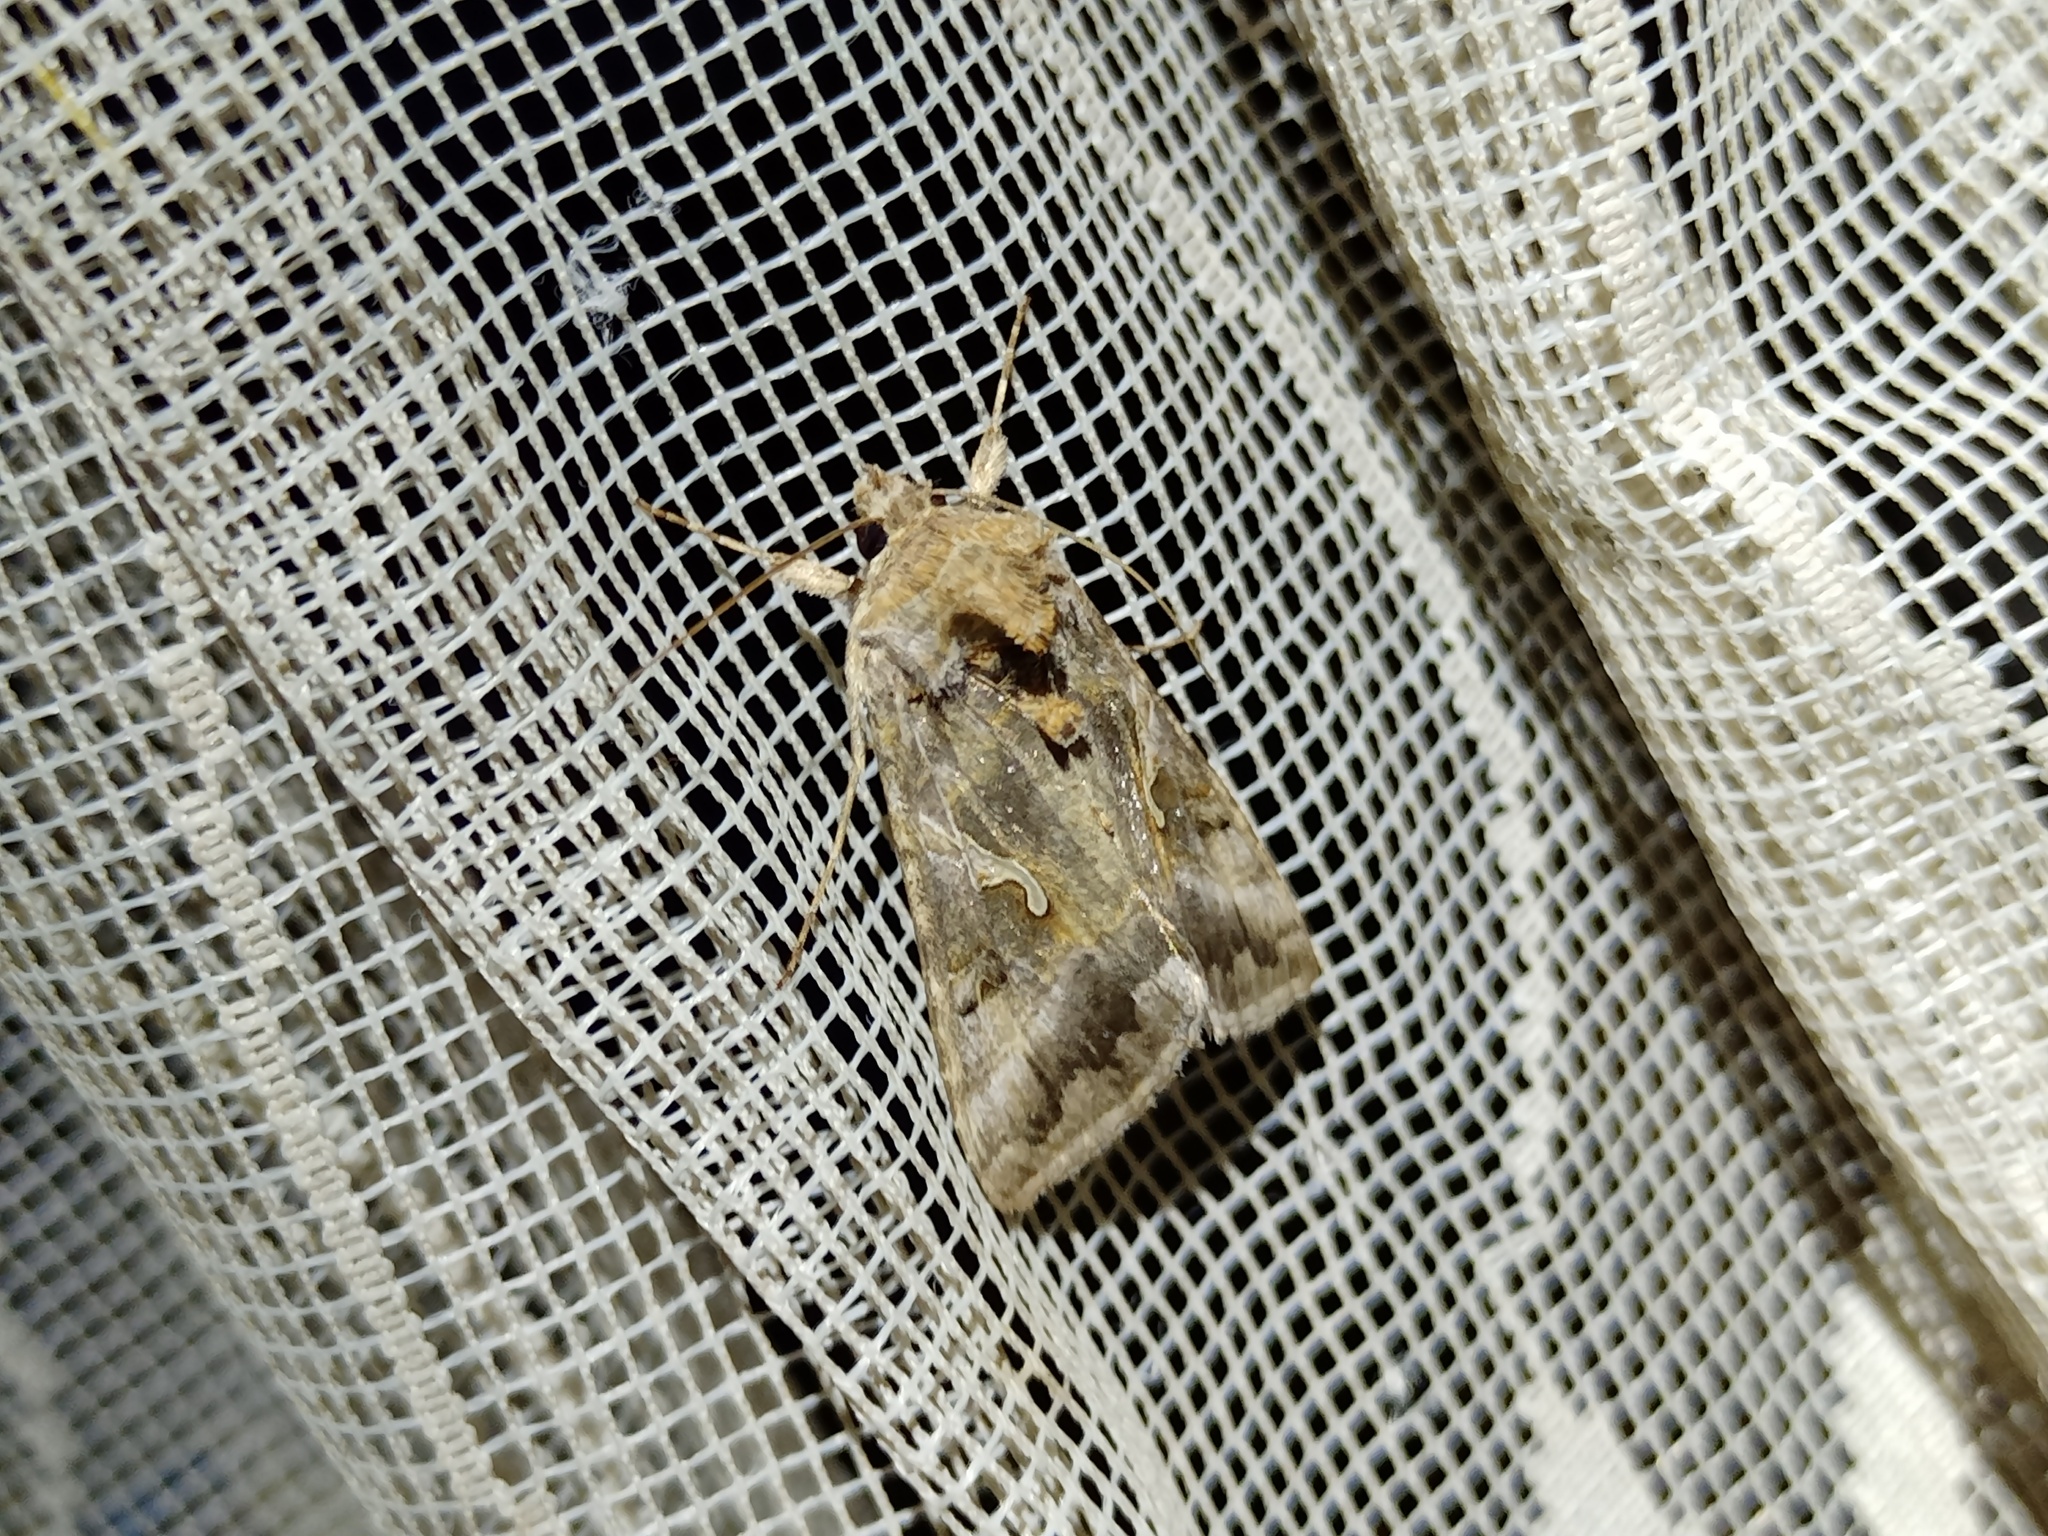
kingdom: Animalia
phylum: Arthropoda
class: Insecta
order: Lepidoptera
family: Noctuidae
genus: Autographa
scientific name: Autographa gamma
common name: Silver y
